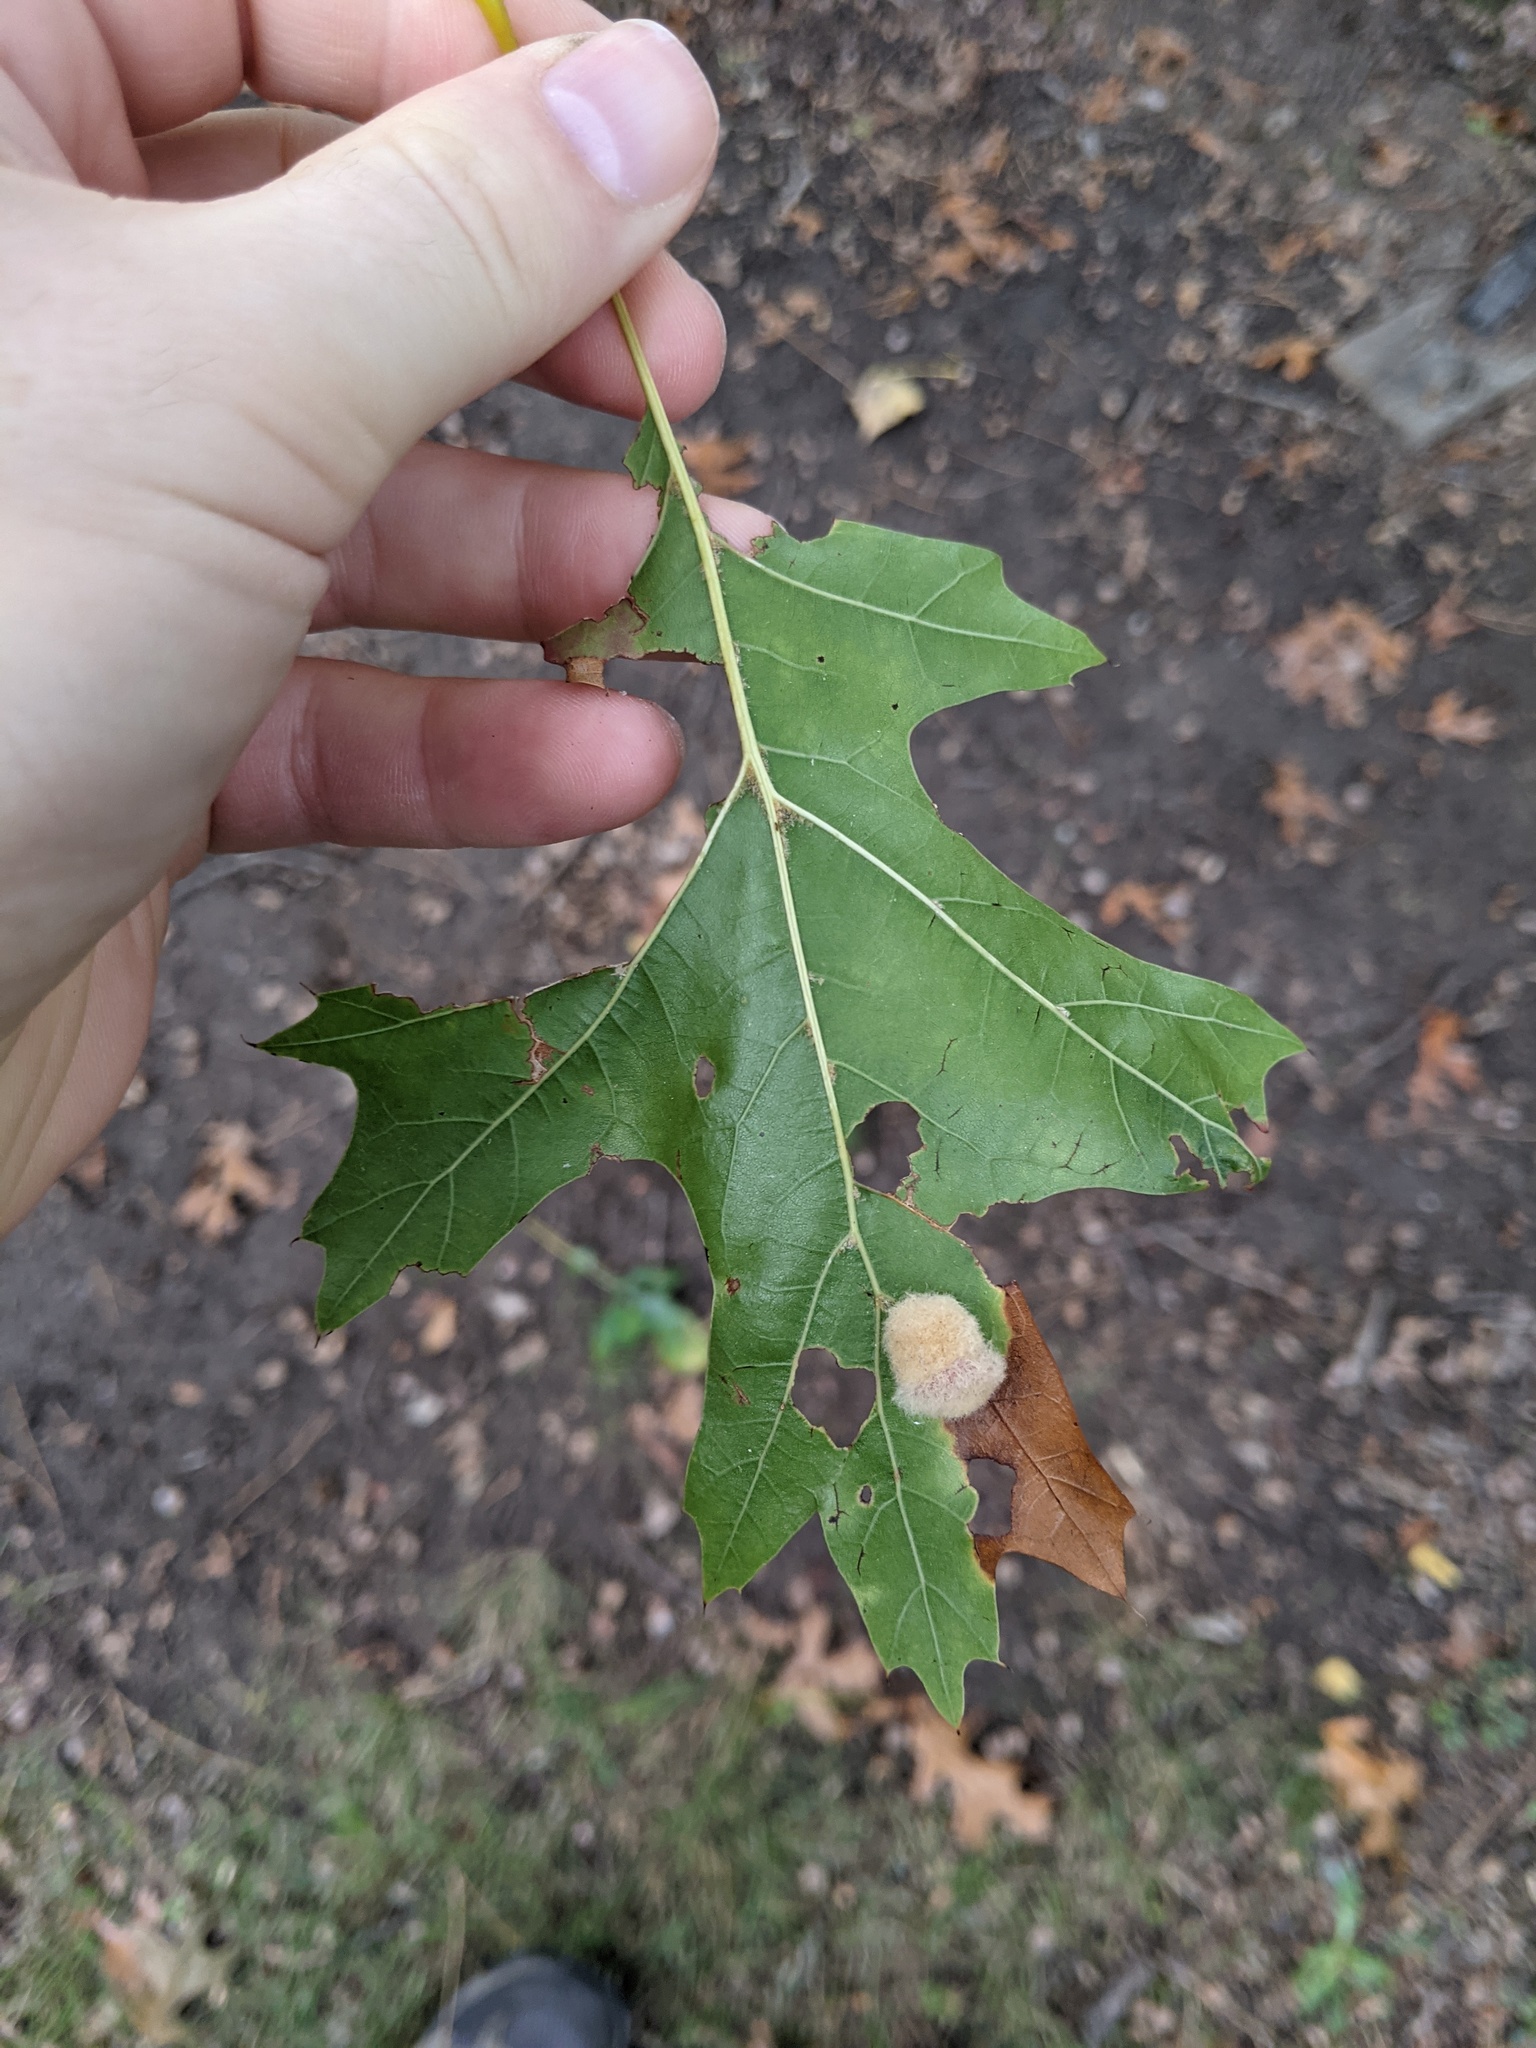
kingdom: Animalia
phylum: Arthropoda
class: Insecta
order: Hymenoptera
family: Cynipidae
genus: Callirhytis
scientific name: Callirhytis
